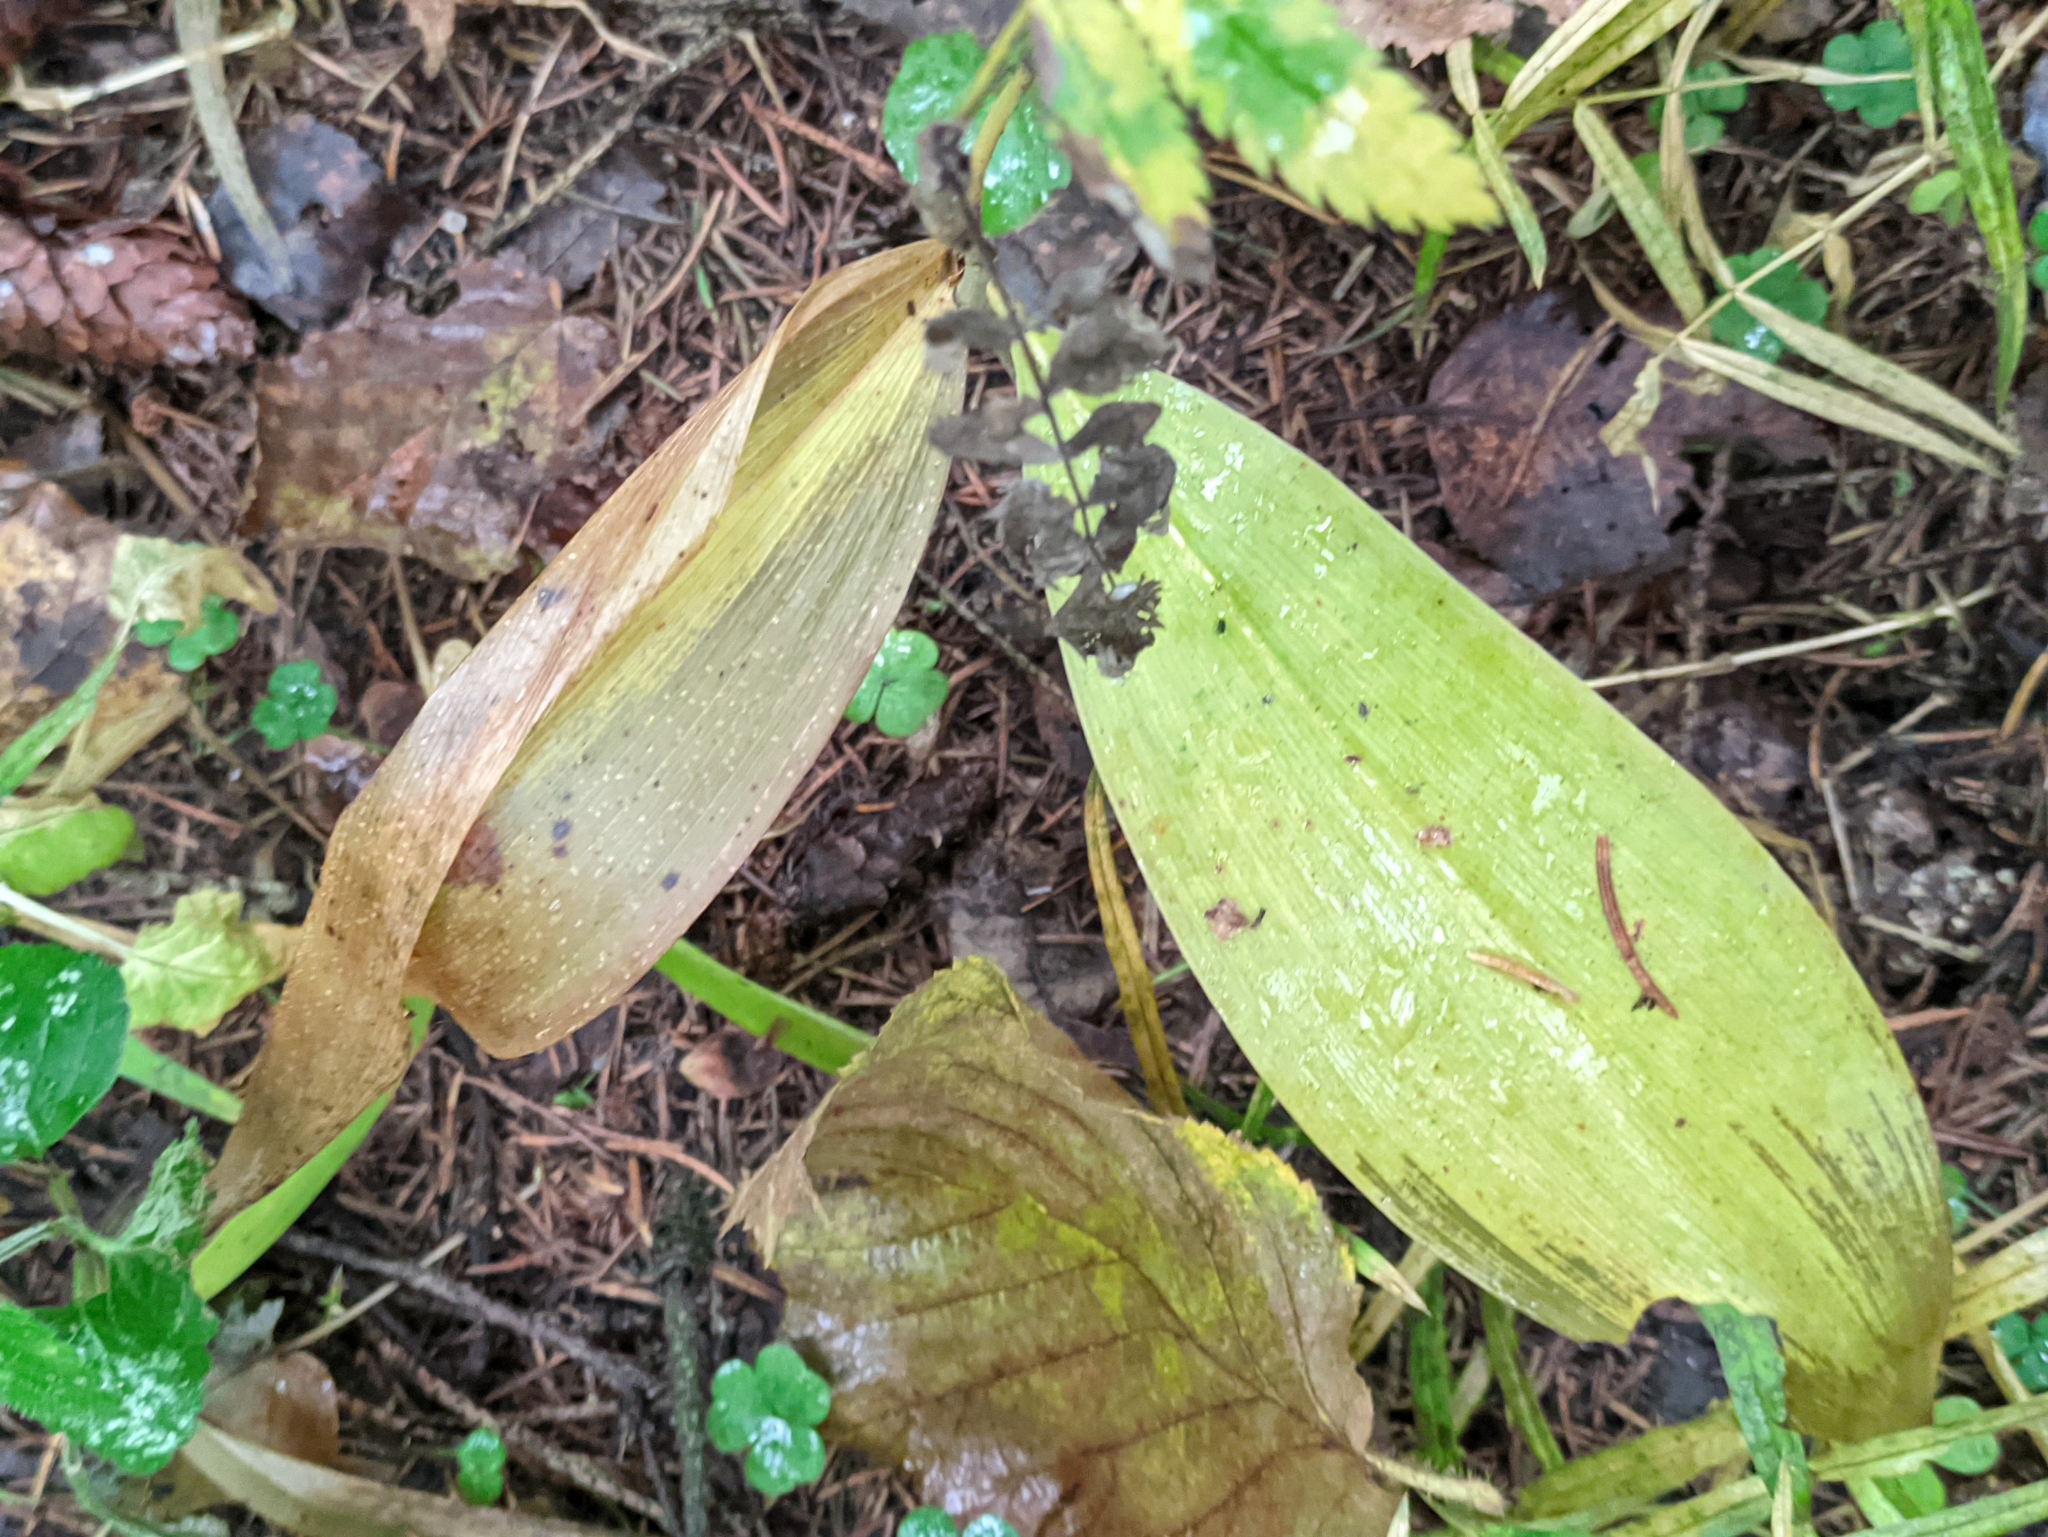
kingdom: Plantae
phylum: Tracheophyta
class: Liliopsida
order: Asparagales
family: Asparagaceae
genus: Convallaria
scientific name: Convallaria majalis
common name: Lily-of-the-valley
